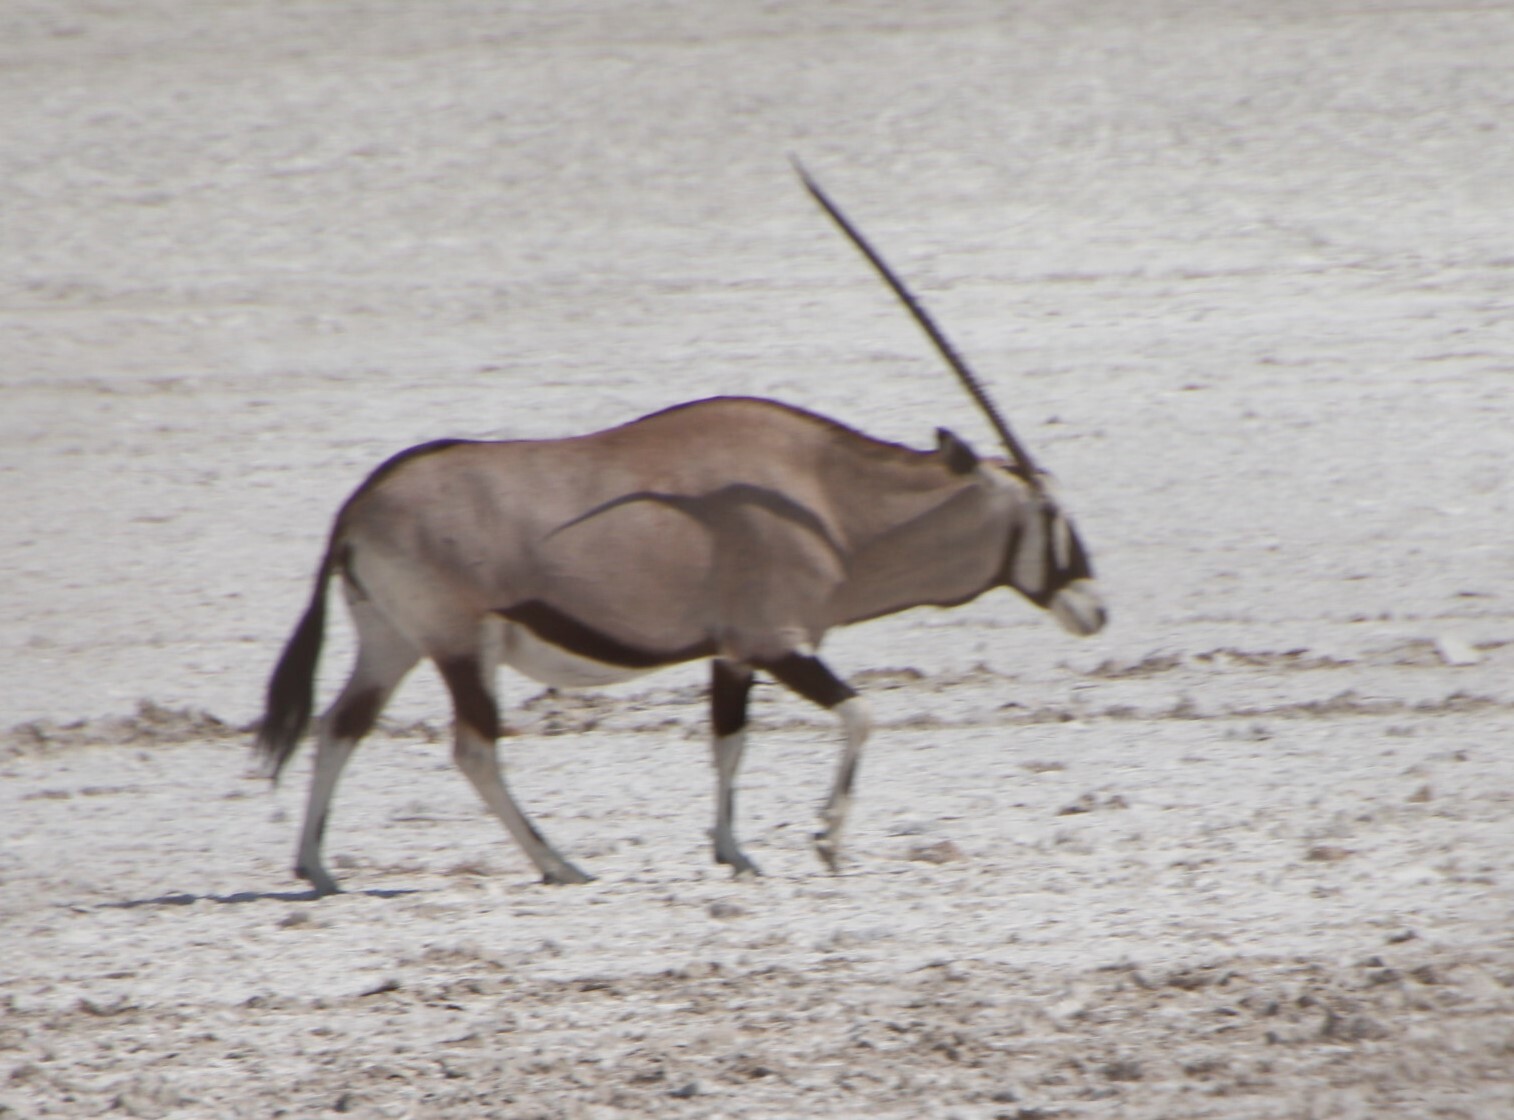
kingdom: Animalia
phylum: Chordata
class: Mammalia
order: Artiodactyla
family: Bovidae
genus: Oryx
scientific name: Oryx gazella
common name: Gemsbok
